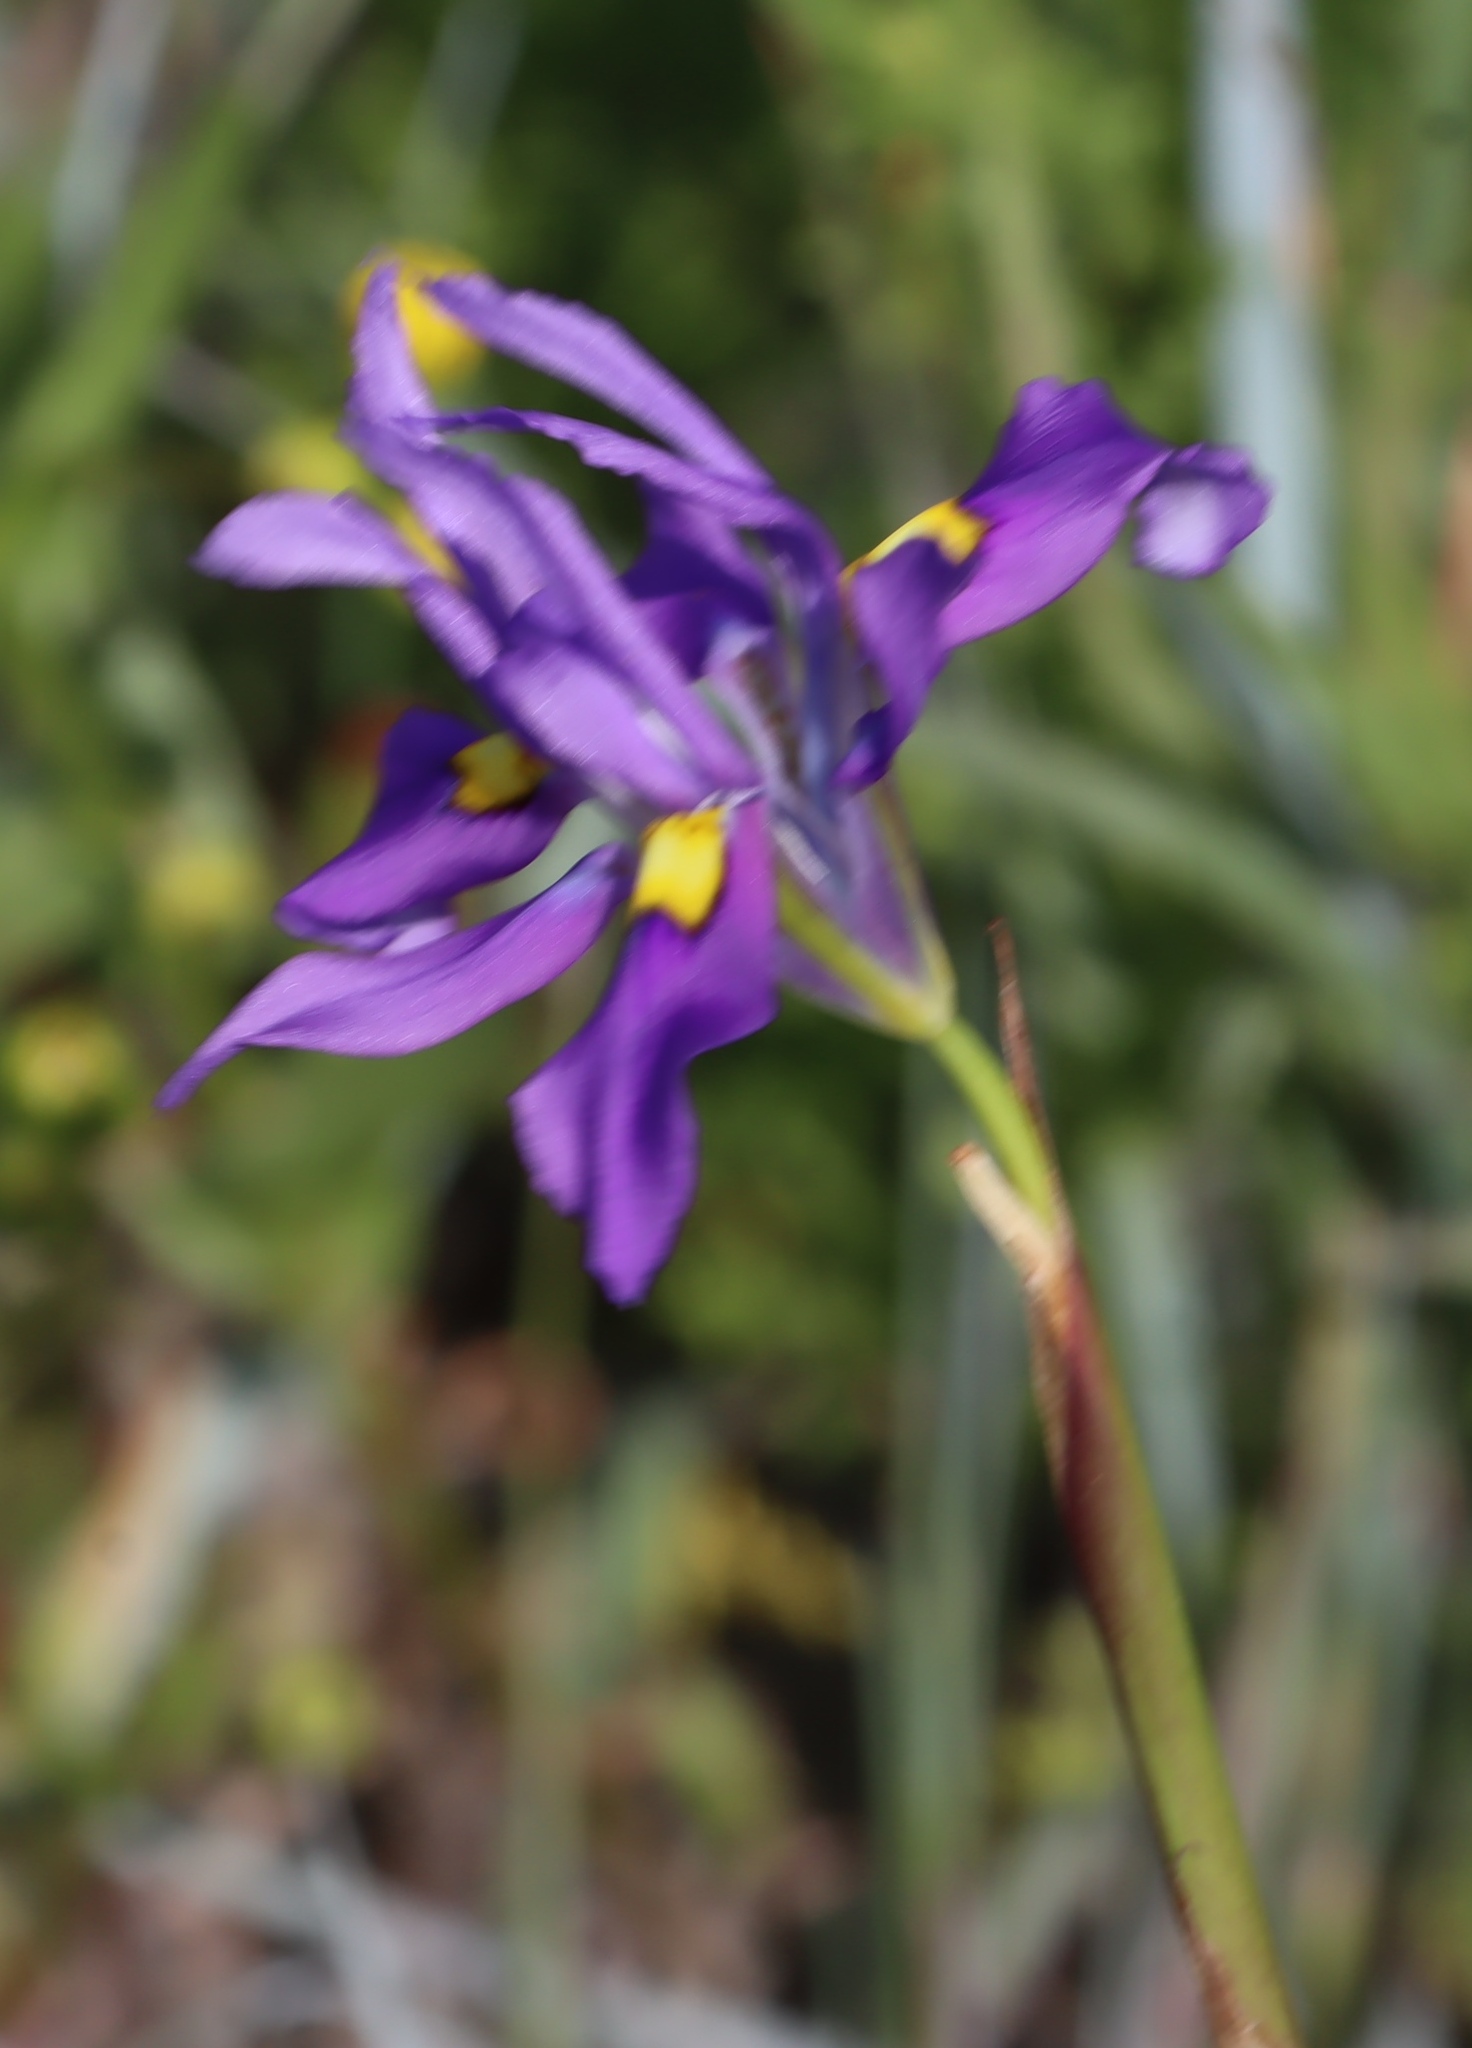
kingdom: Plantae
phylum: Tracheophyta
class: Liliopsida
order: Asparagales
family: Iridaceae
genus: Moraea
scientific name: Moraea fugax
